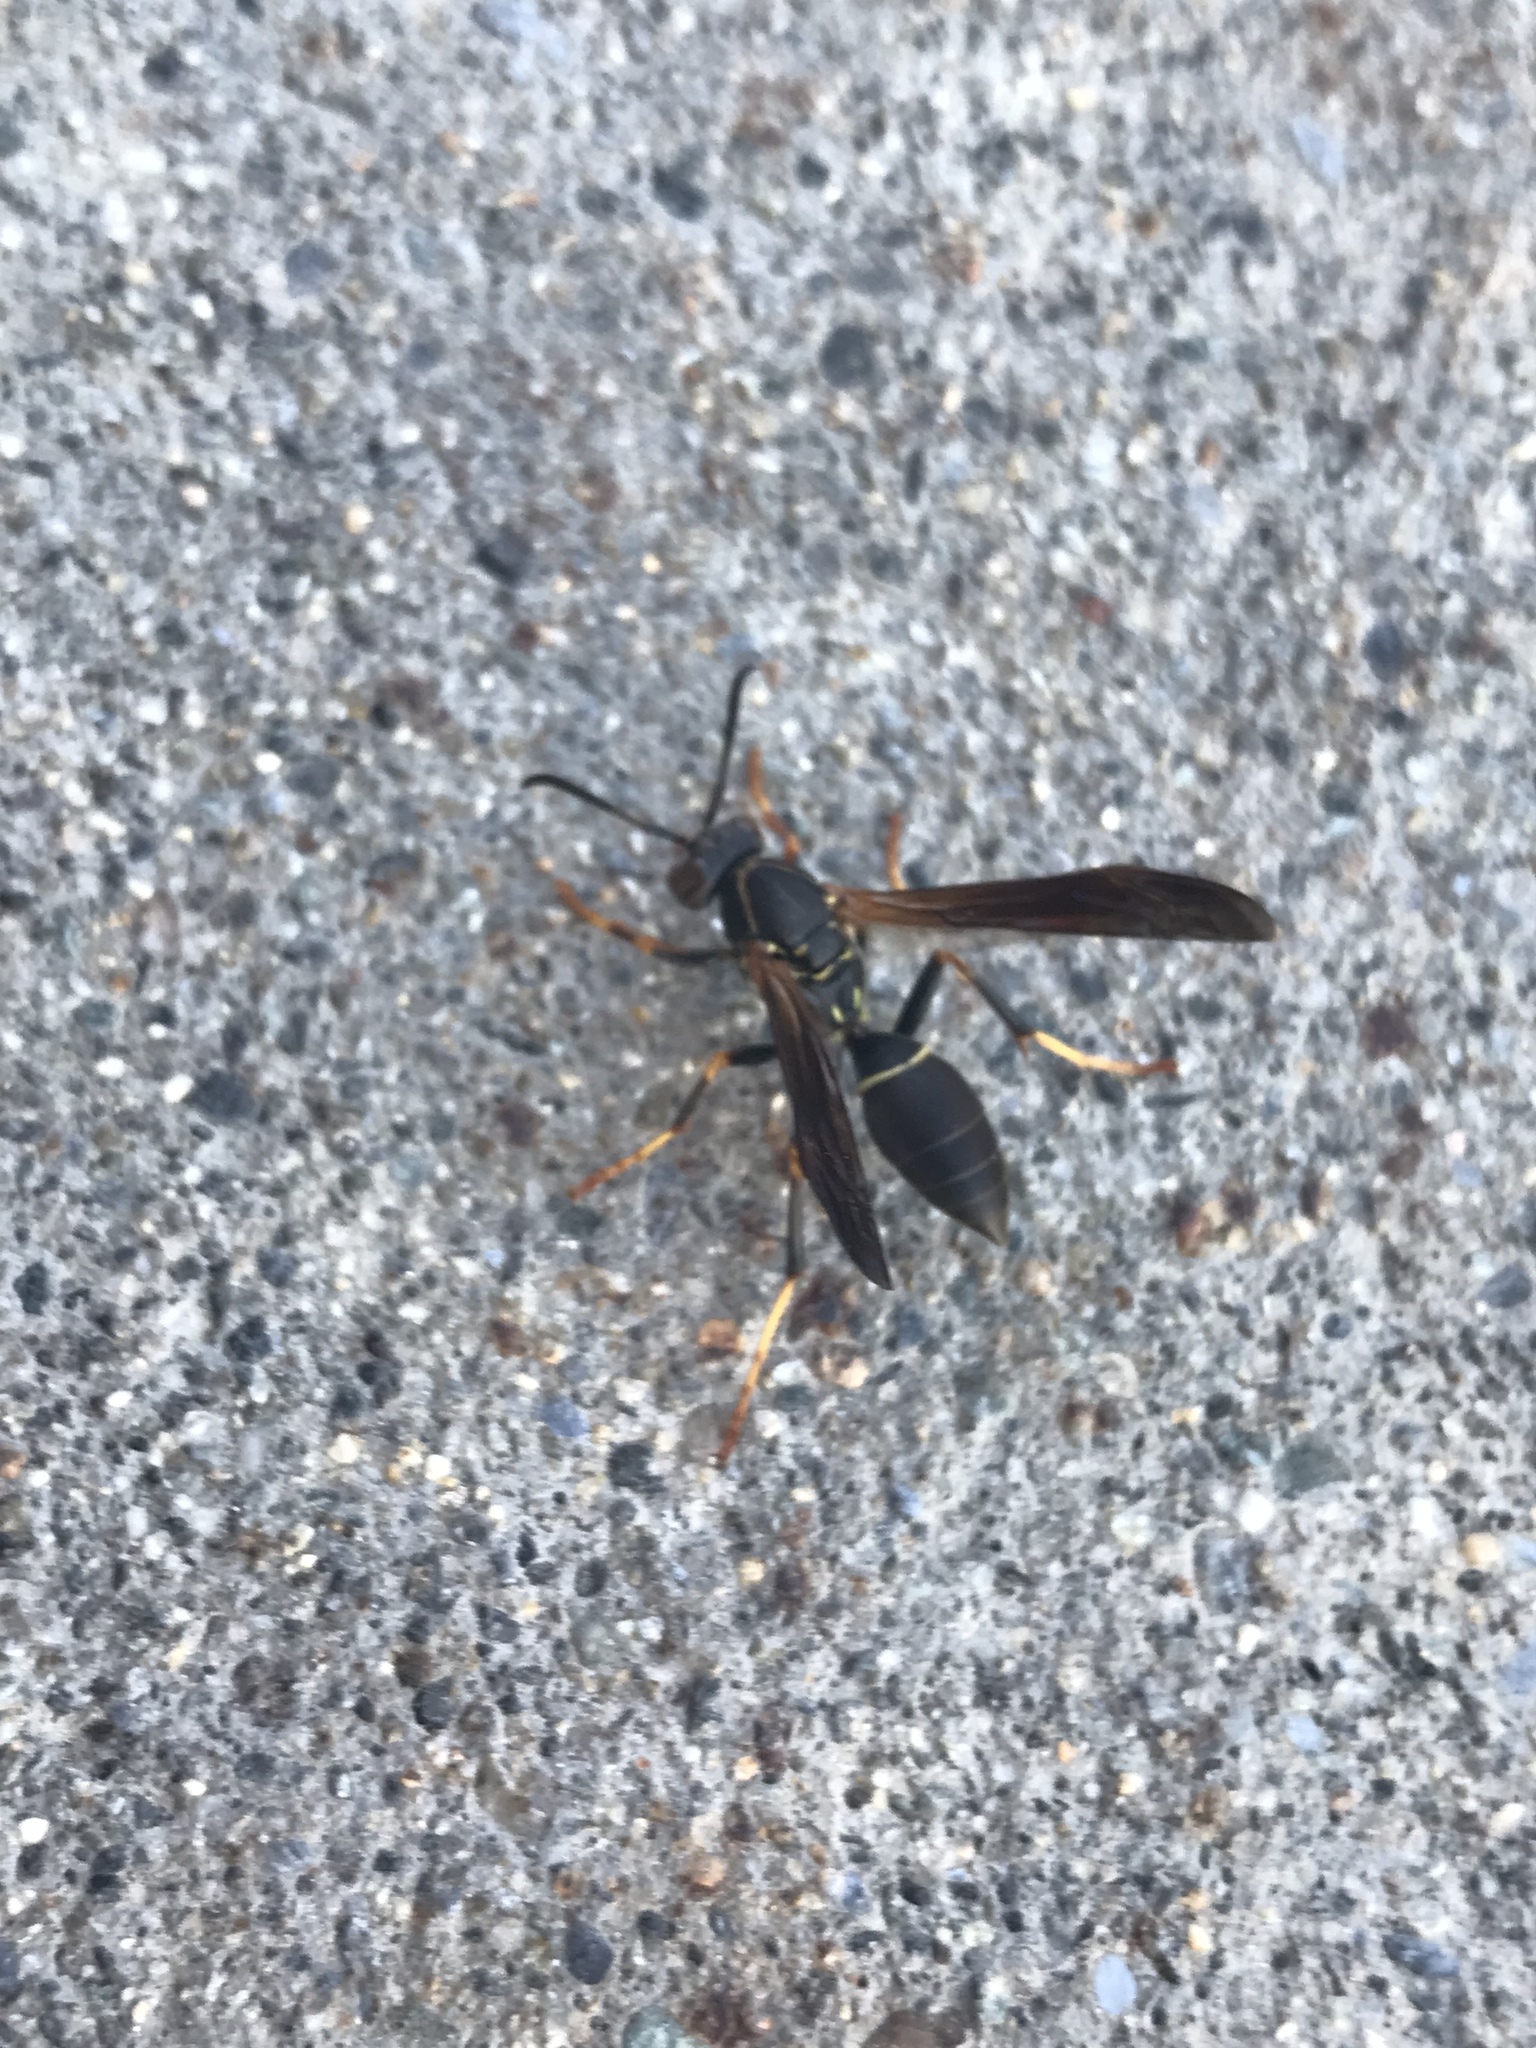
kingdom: Animalia
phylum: Arthropoda
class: Insecta
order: Hymenoptera
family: Eumenidae
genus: Polistes
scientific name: Polistes fuscatus
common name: Dark paper wasp
